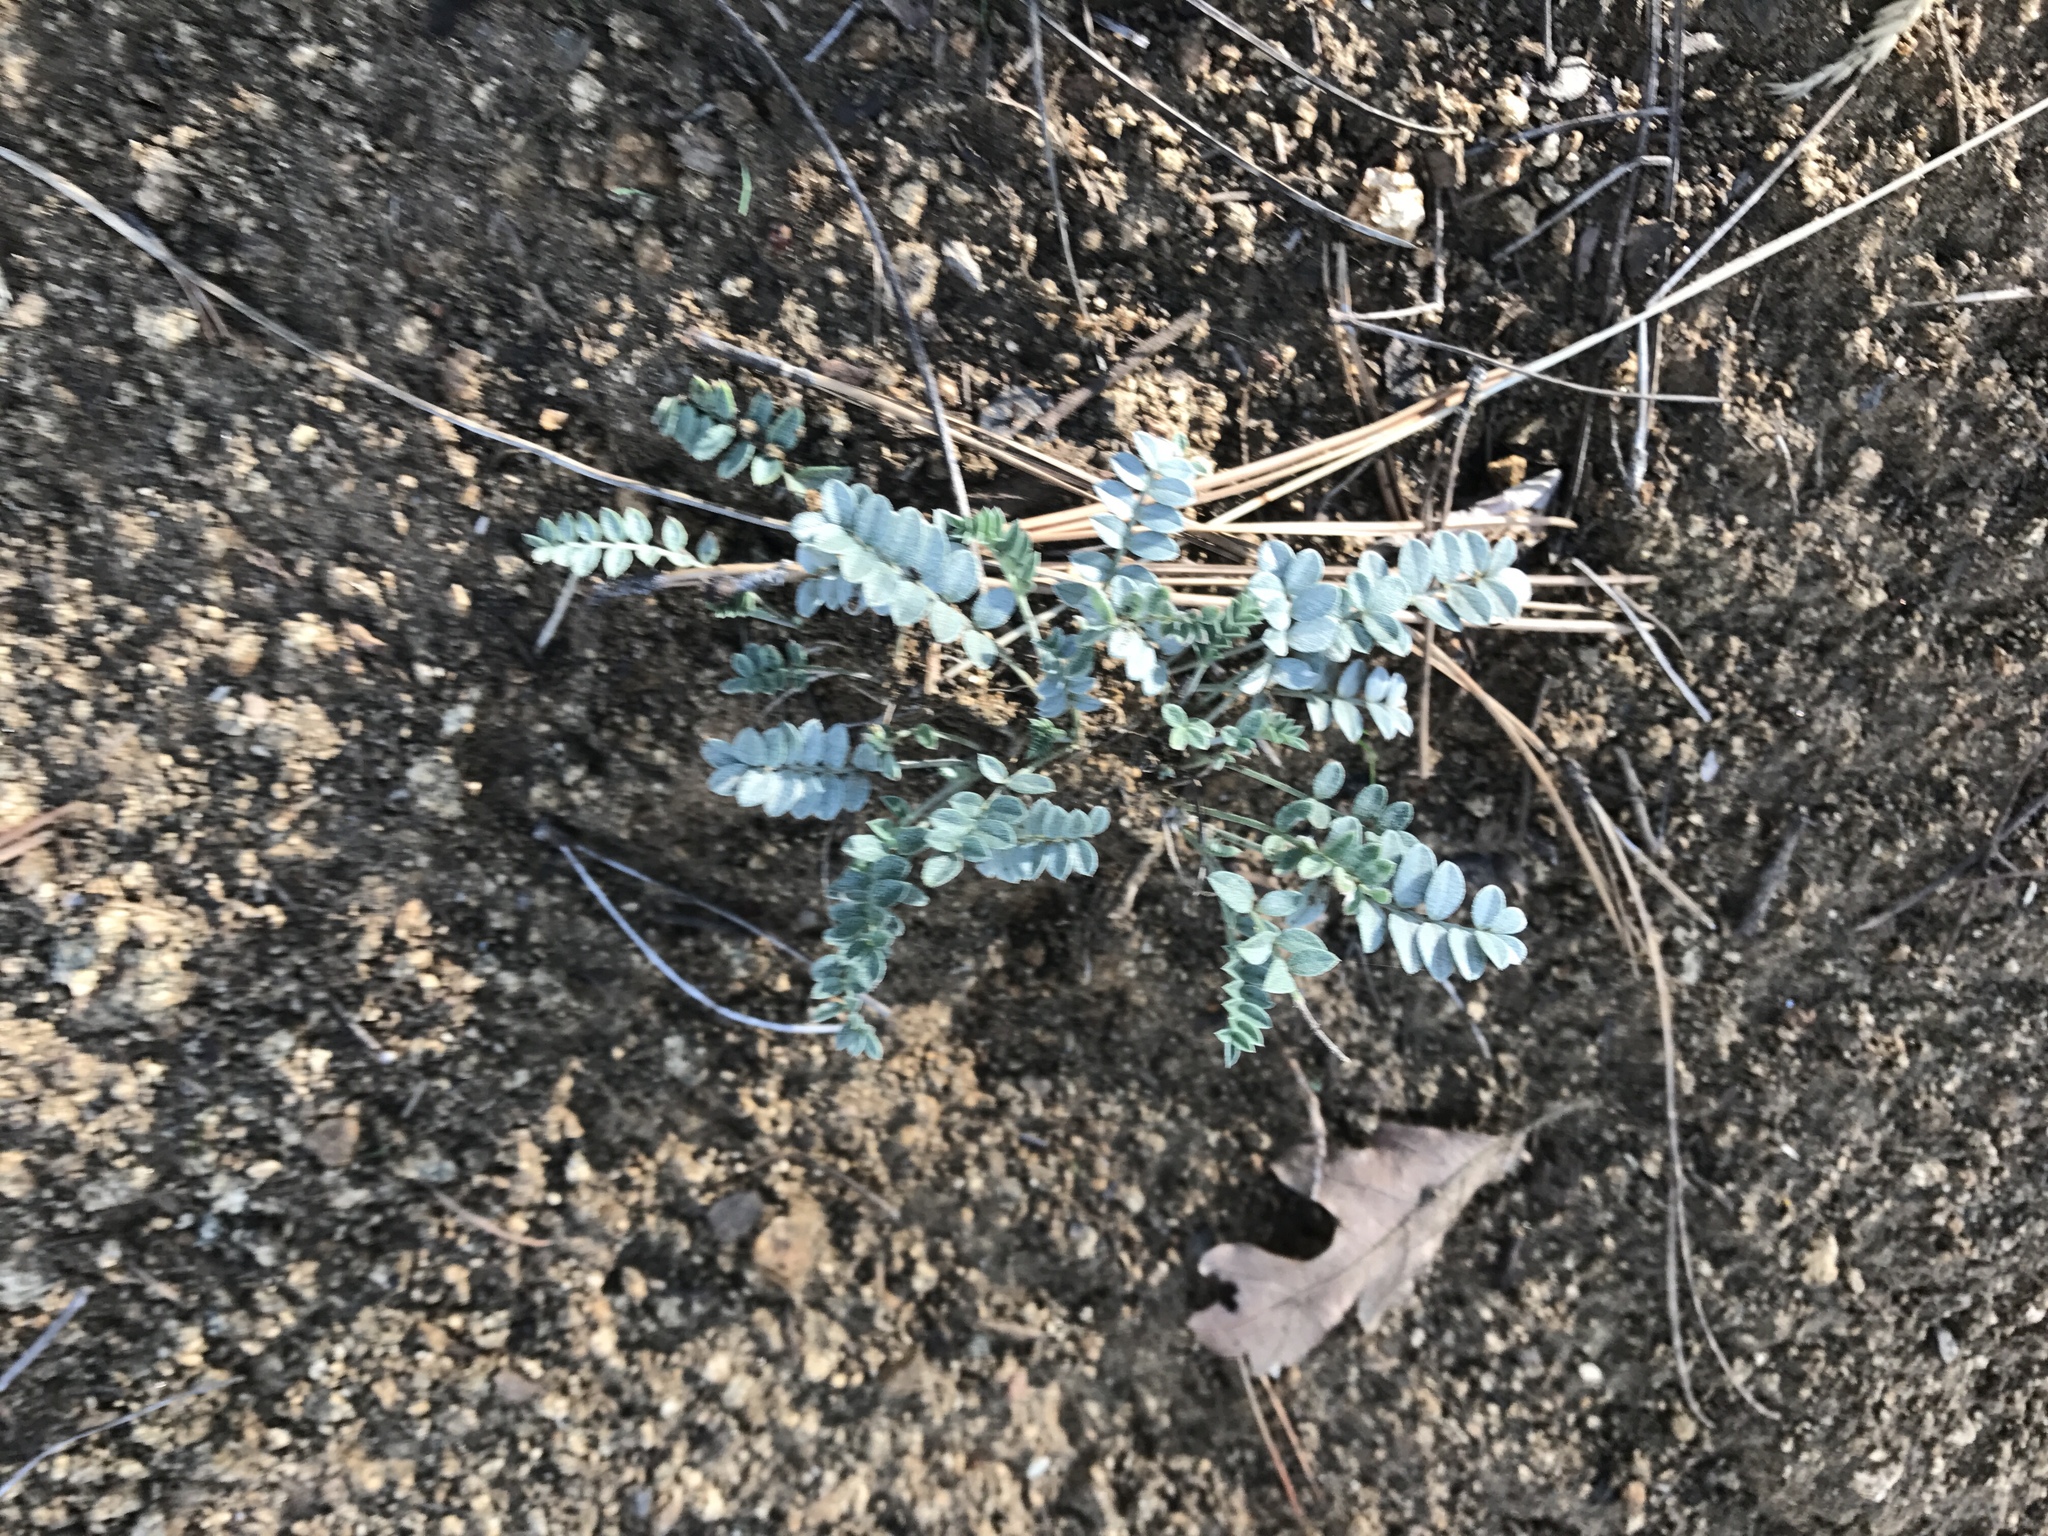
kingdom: Plantae
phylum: Tracheophyta
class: Magnoliopsida
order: Fabales
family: Fabaceae
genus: Astragalus
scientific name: Astragalus tephrodes
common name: Ashen milk-vetch
